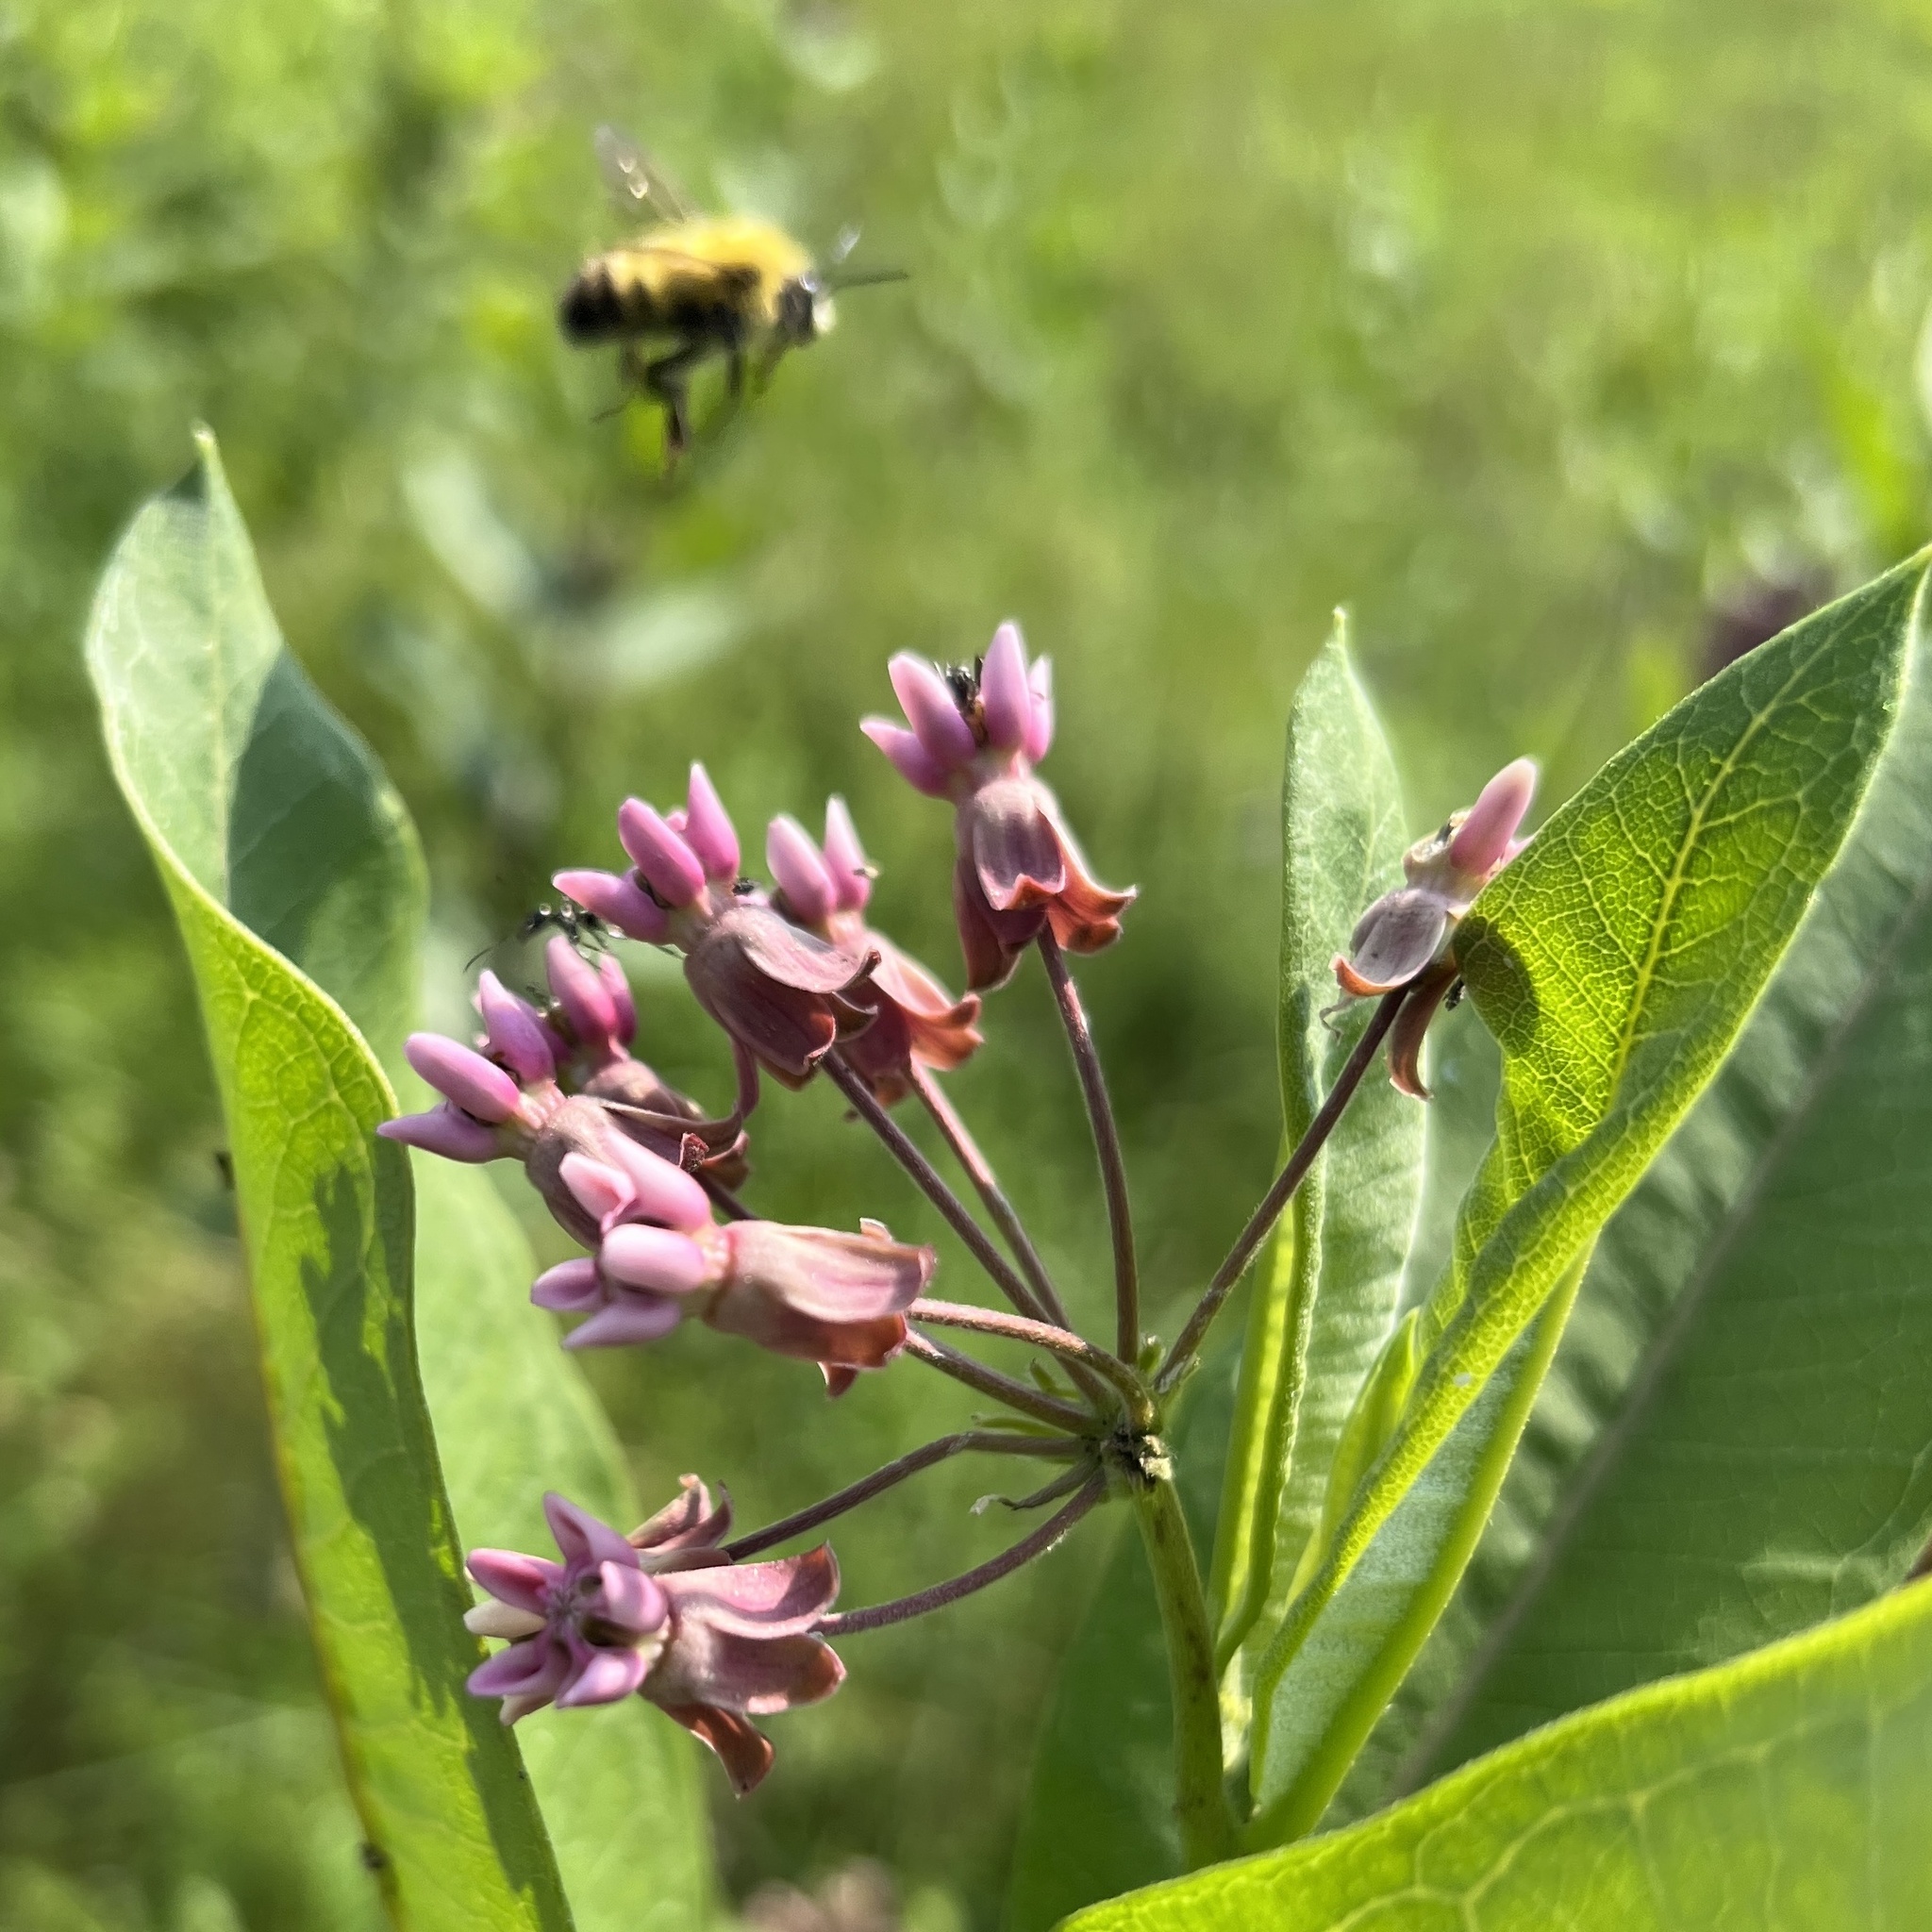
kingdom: Animalia
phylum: Arthropoda
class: Insecta
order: Hymenoptera
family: Apidae
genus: Bombus
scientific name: Bombus perplexus
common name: Confusing bumble bee
